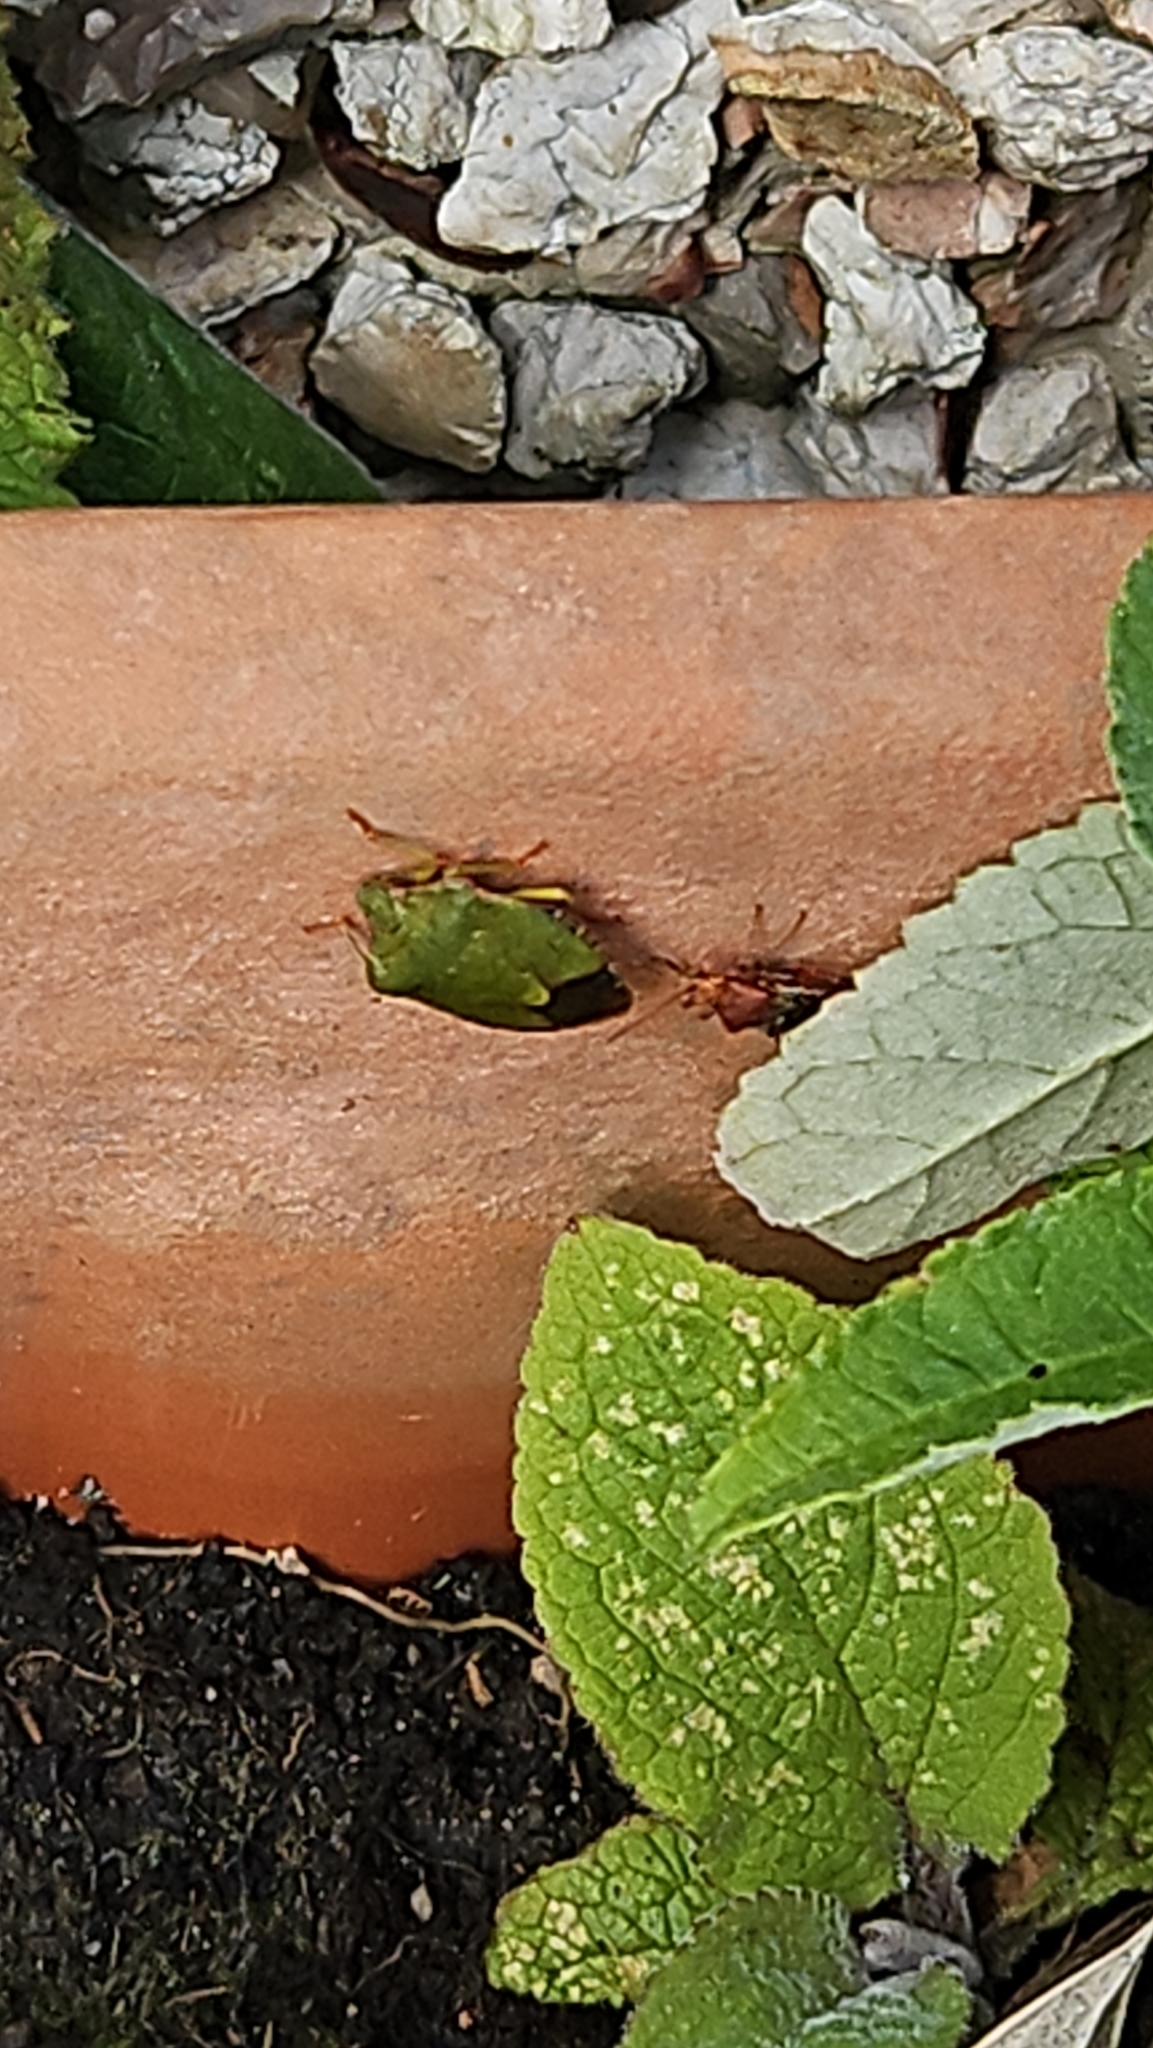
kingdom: Animalia
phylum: Arthropoda
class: Insecta
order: Hemiptera
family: Pentatomidae
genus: Palomena
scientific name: Palomena prasina
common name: Green shieldbug
